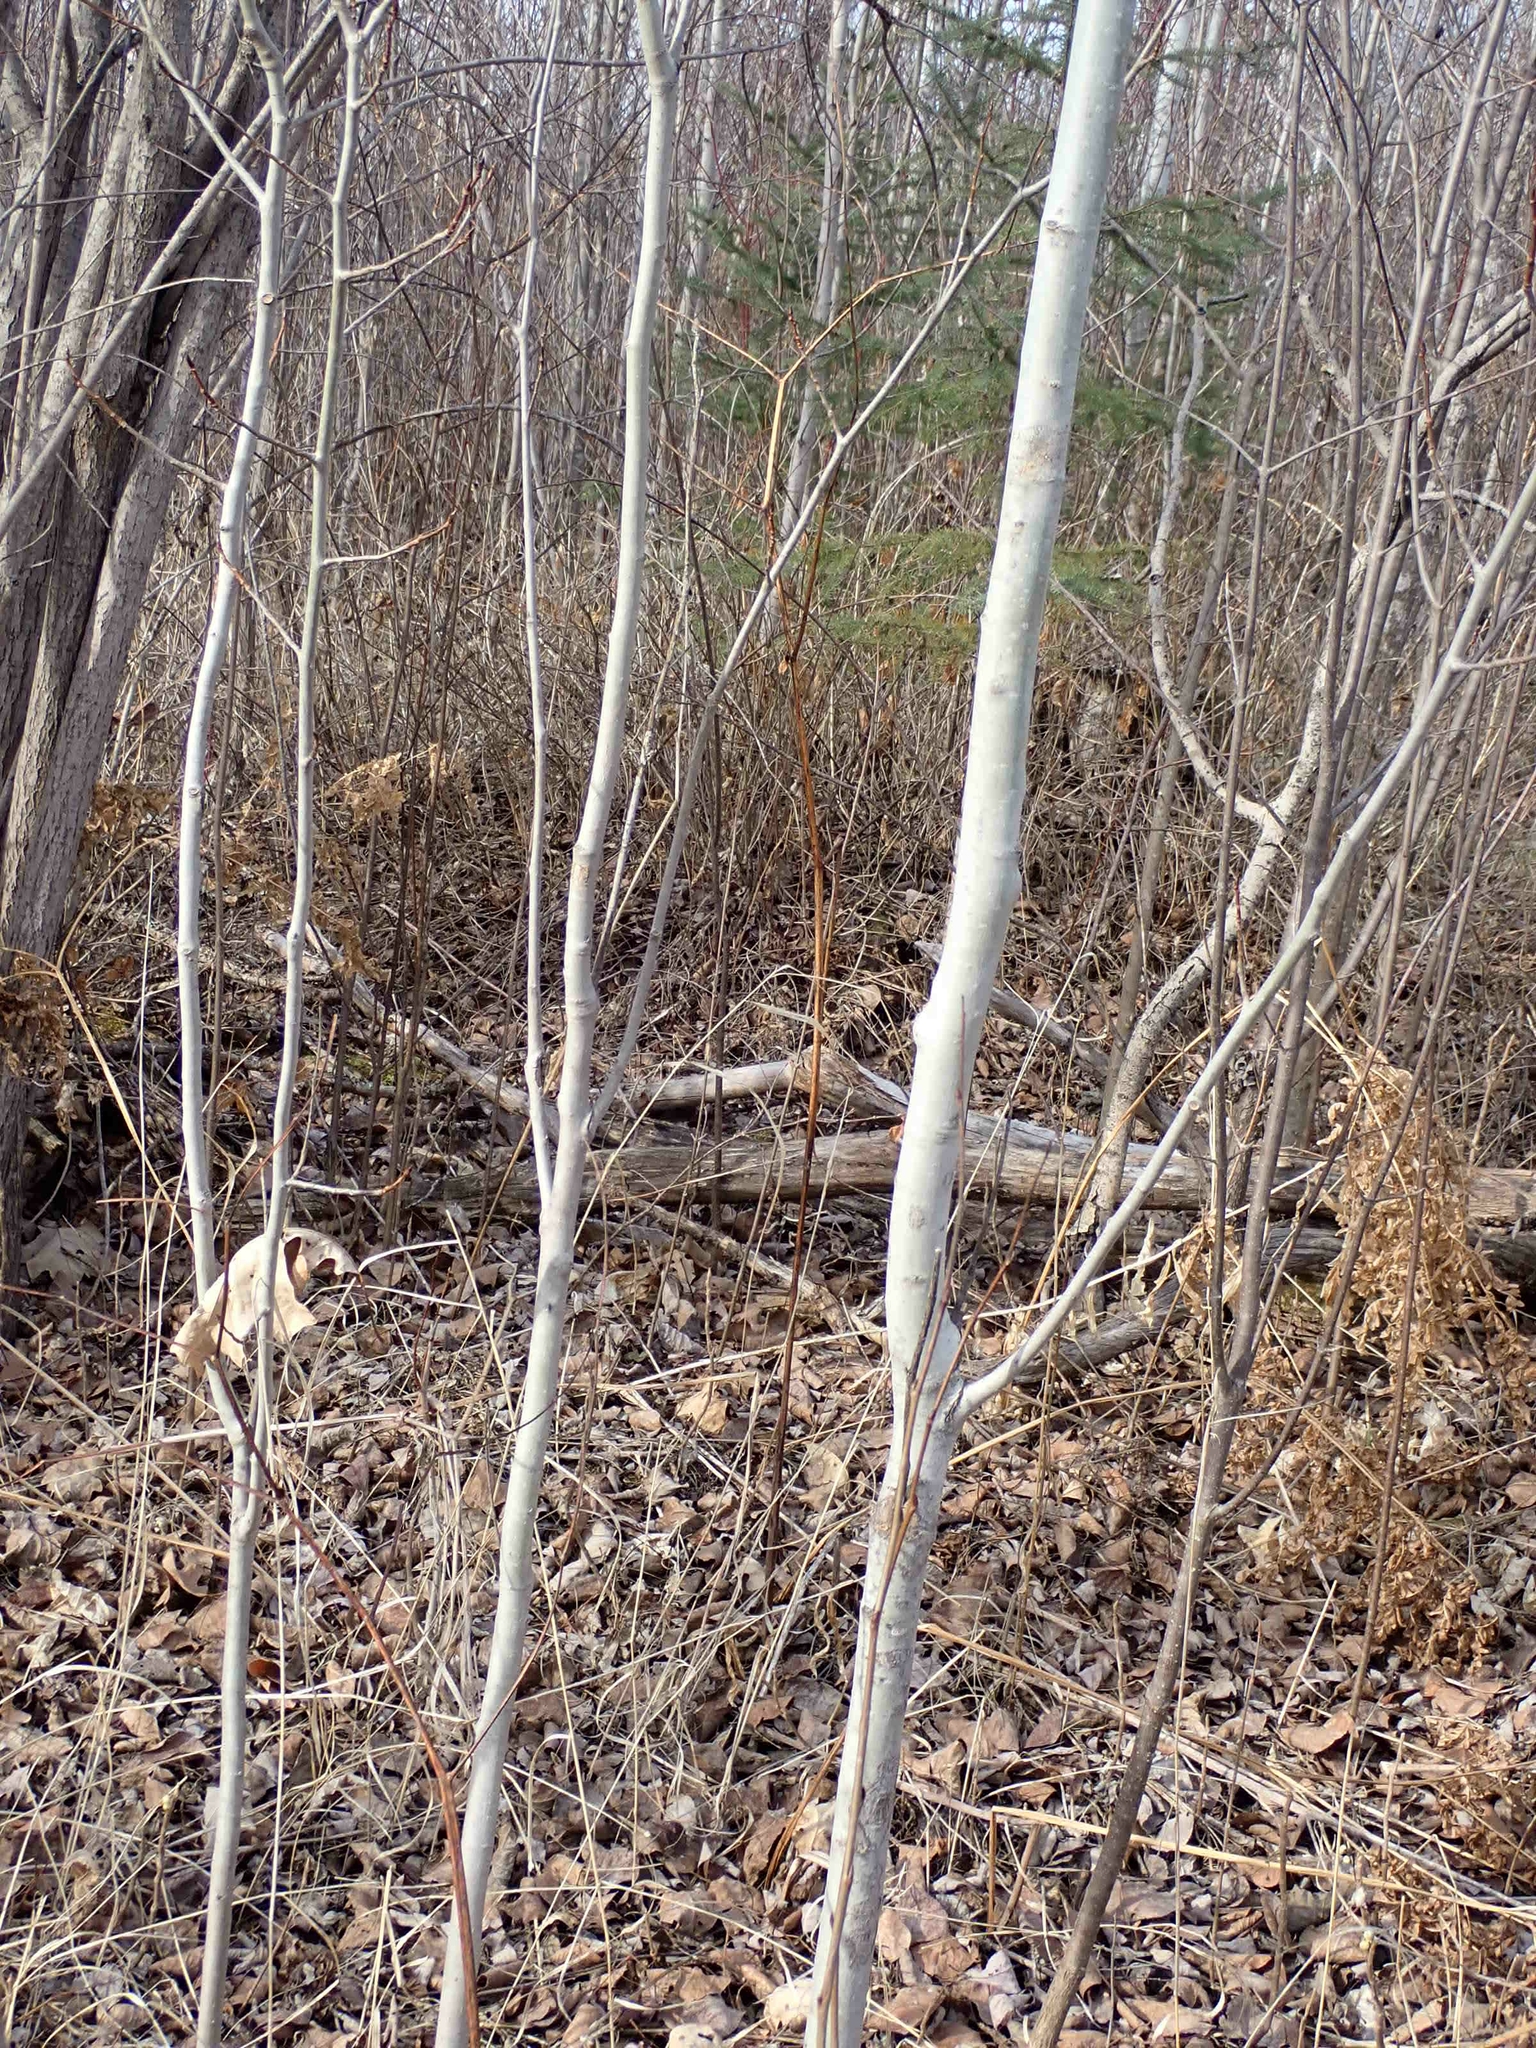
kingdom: Plantae
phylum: Tracheophyta
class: Magnoliopsida
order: Malpighiales
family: Salicaceae
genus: Populus
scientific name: Populus tremuloides
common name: Quaking aspen
